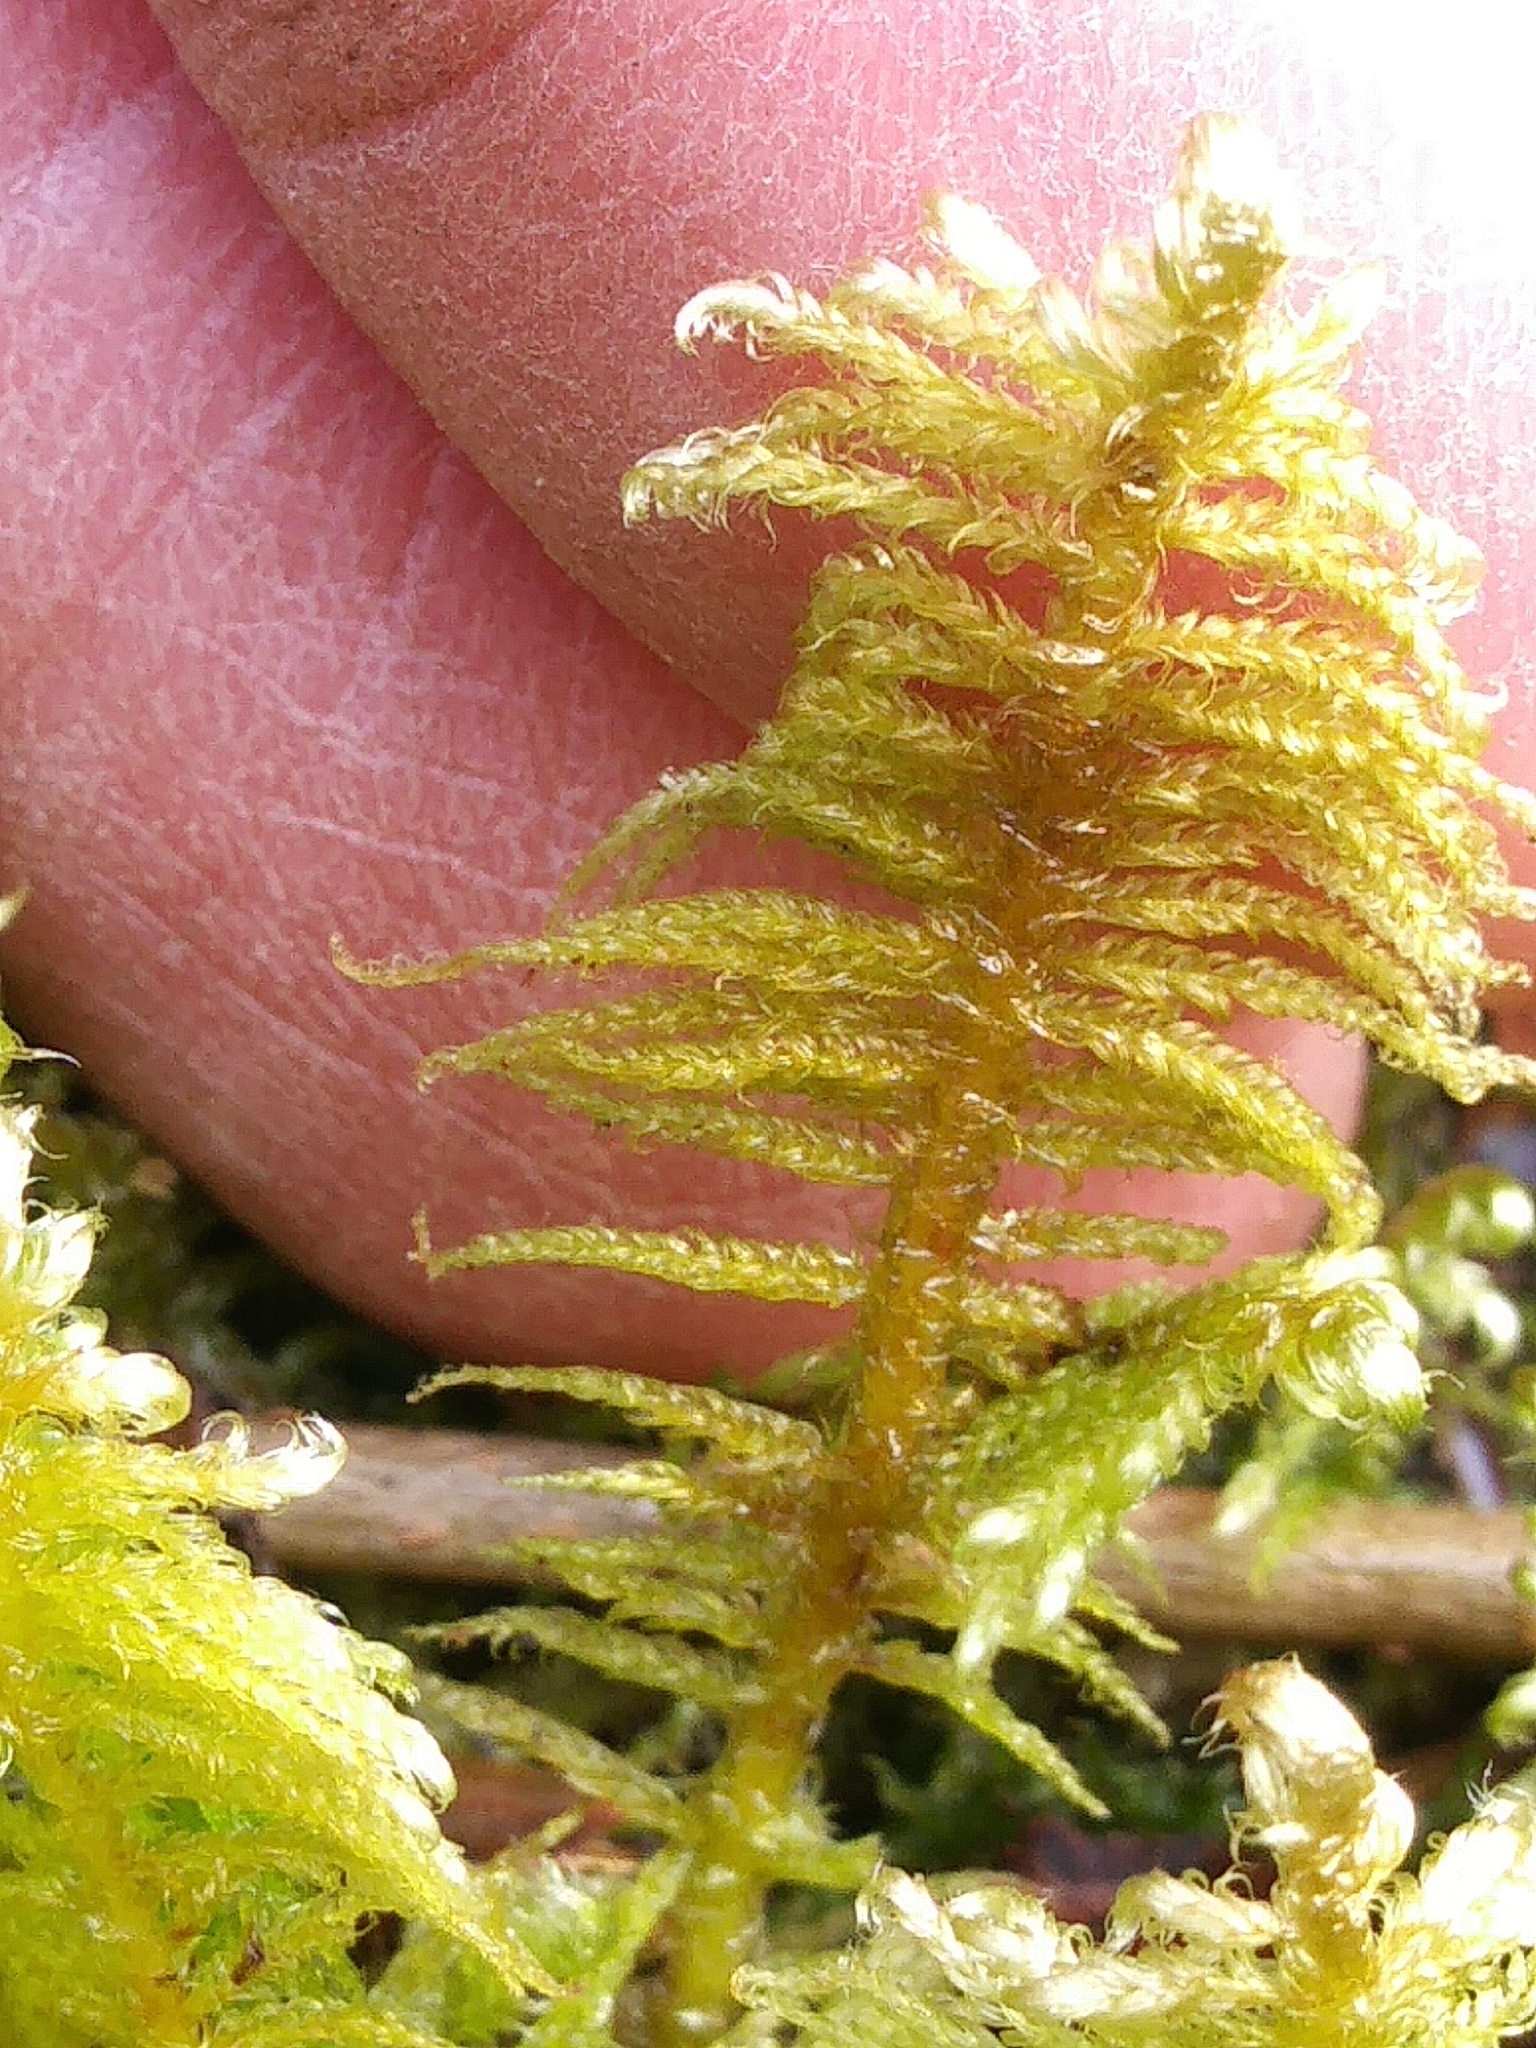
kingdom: Plantae
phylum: Bryophyta
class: Bryopsida
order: Hypnales
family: Pylaisiaceae
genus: Ptilium
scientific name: Ptilium crista-castrensis
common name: Knight's plume moss
